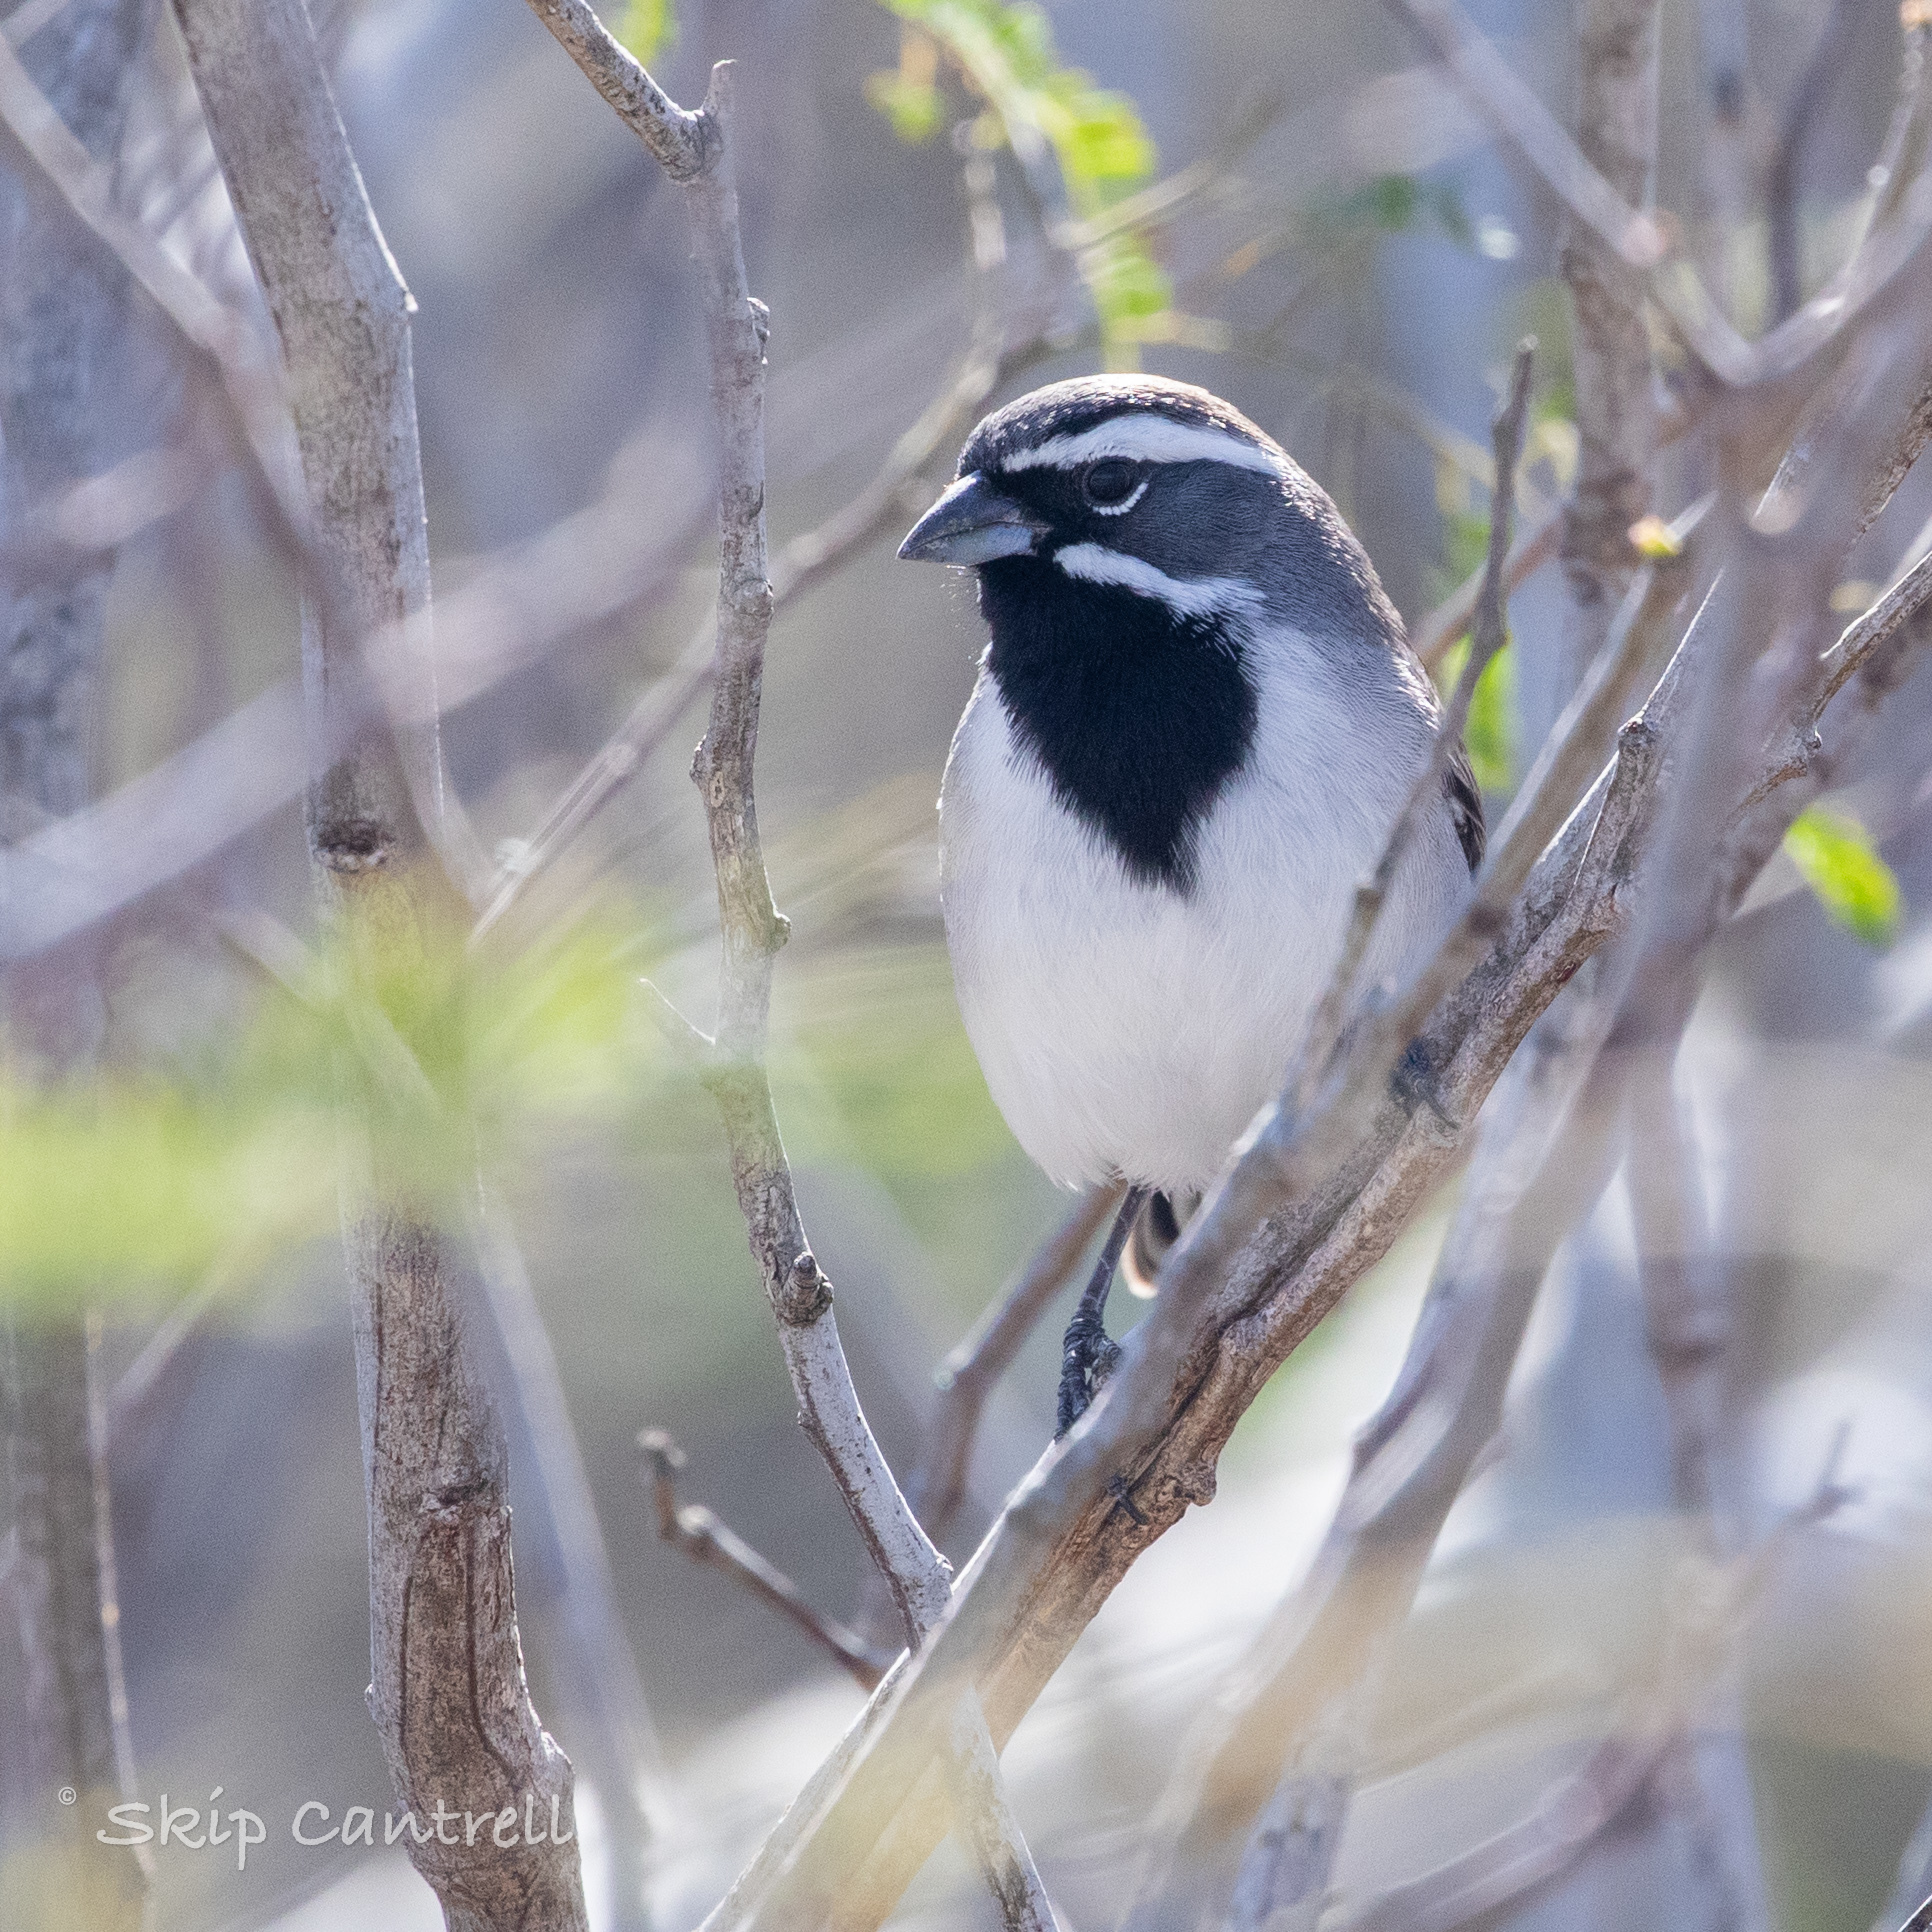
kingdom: Animalia
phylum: Chordata
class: Aves
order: Passeriformes
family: Passerellidae
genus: Amphispiza
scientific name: Amphispiza bilineata
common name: Black-throated sparrow
